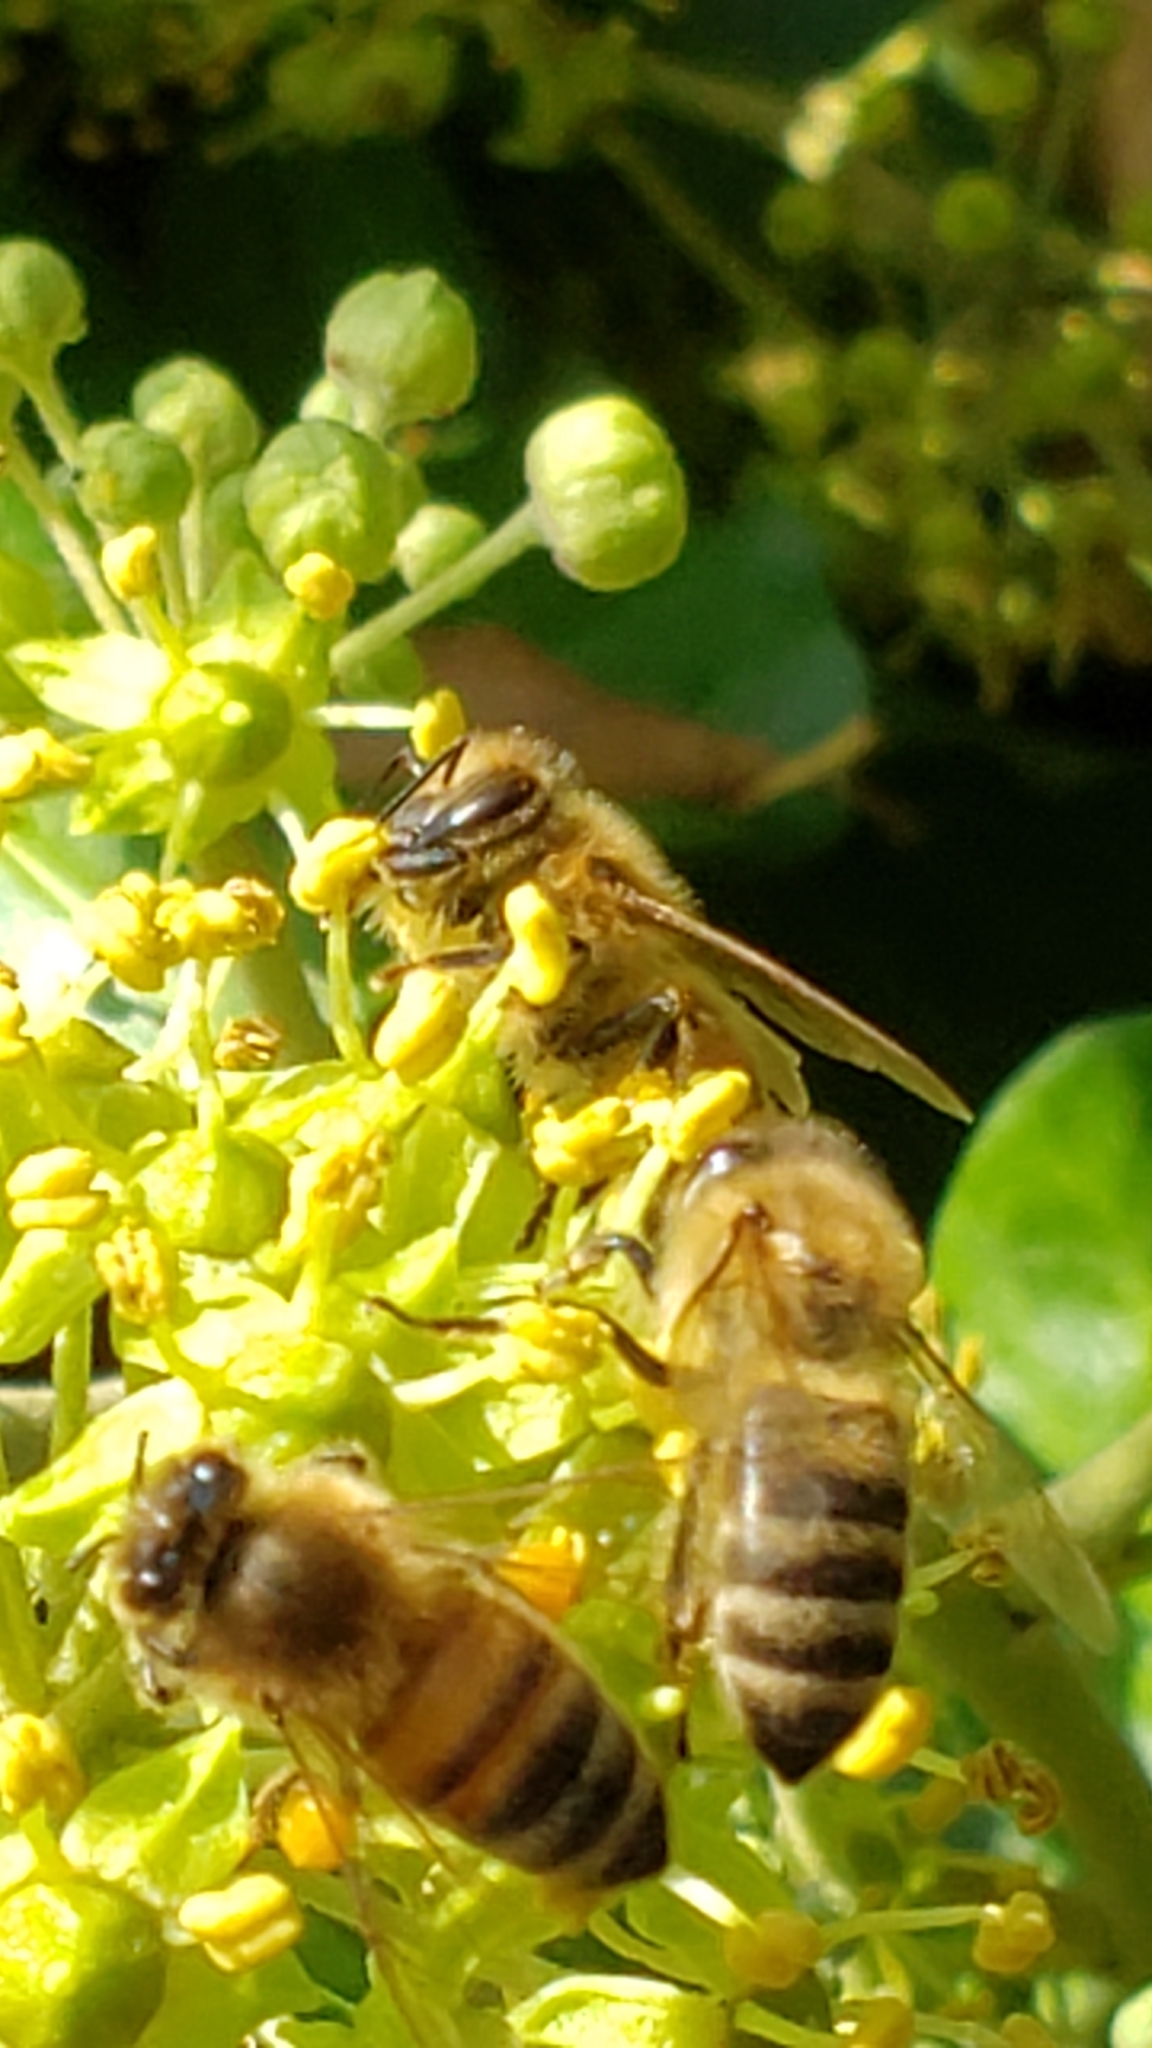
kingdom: Animalia
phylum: Arthropoda
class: Insecta
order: Hymenoptera
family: Apidae
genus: Apis
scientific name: Apis mellifera
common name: Honey bee
